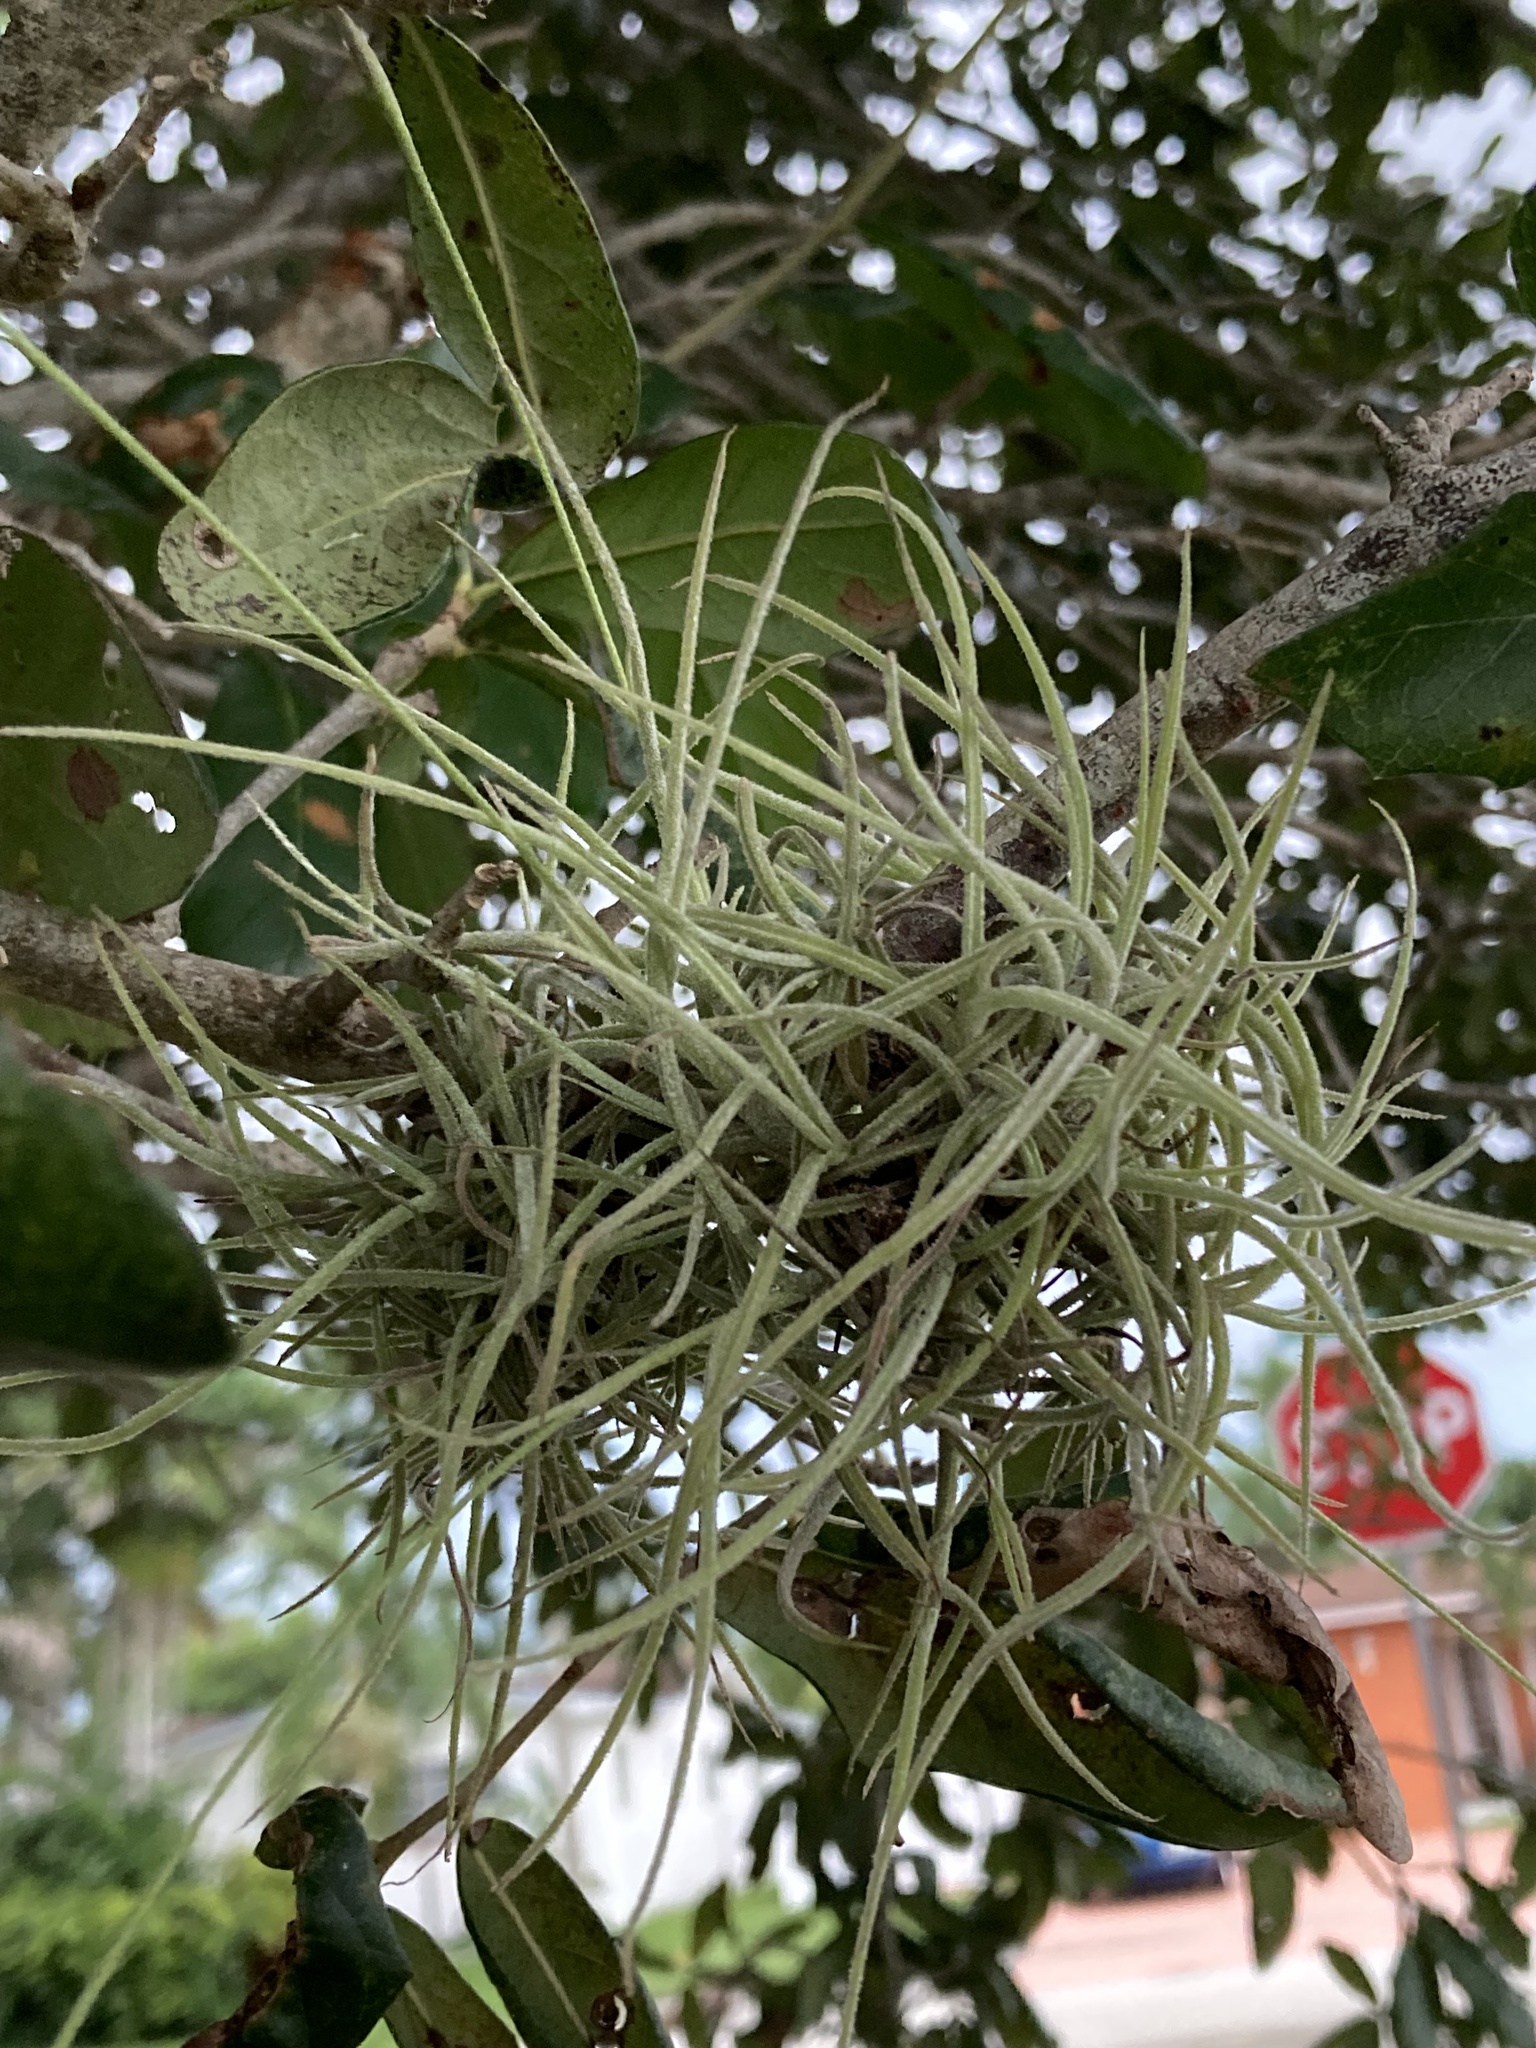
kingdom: Plantae
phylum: Tracheophyta
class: Liliopsida
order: Poales
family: Bromeliaceae
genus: Tillandsia
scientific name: Tillandsia recurvata
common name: Small ballmoss
